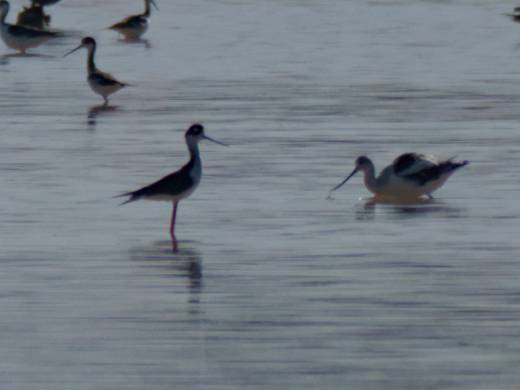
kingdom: Animalia
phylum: Chordata
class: Aves
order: Charadriiformes
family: Recurvirostridae
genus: Himantopus
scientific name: Himantopus mexicanus
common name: Black-necked stilt
